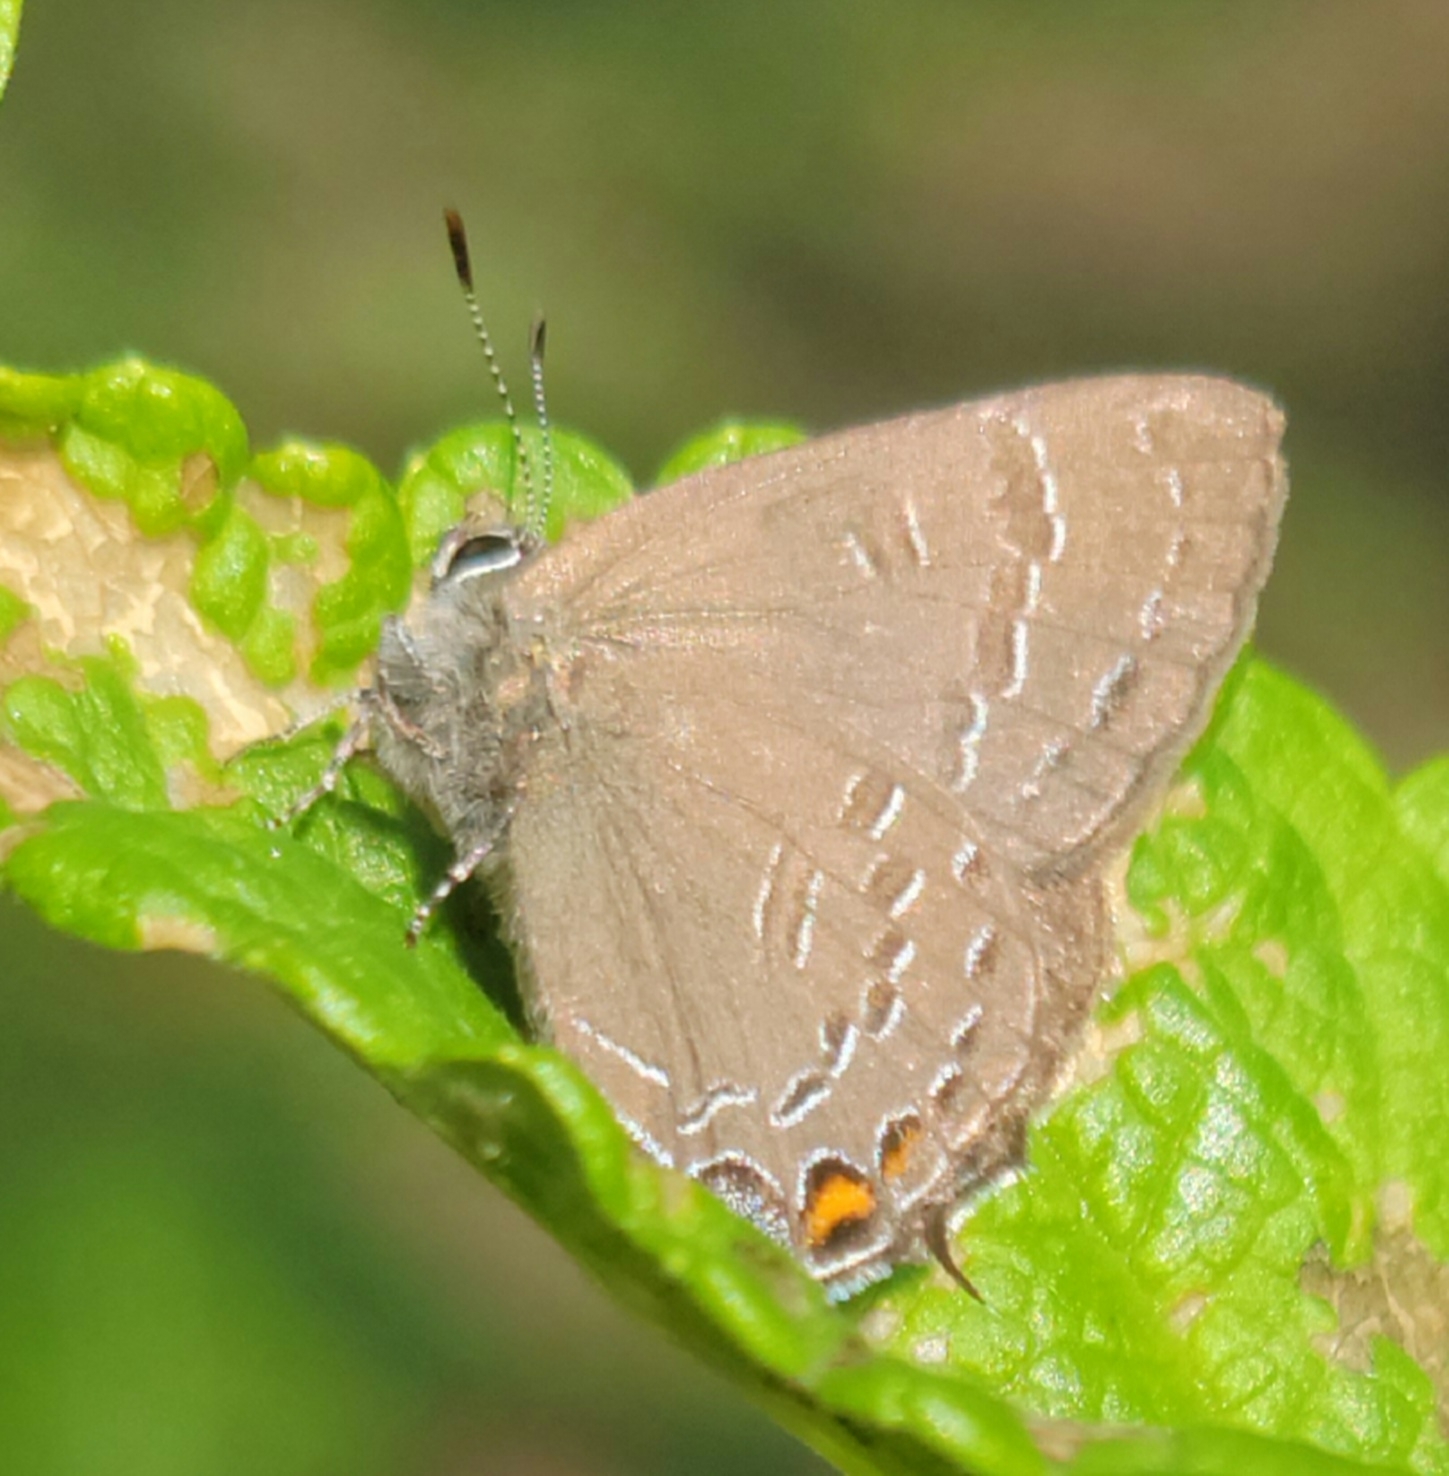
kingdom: Animalia
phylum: Arthropoda
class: Insecta
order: Lepidoptera
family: Lycaenidae
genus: Satyrium
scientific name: Satyrium calanus
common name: Banded hairstreak
